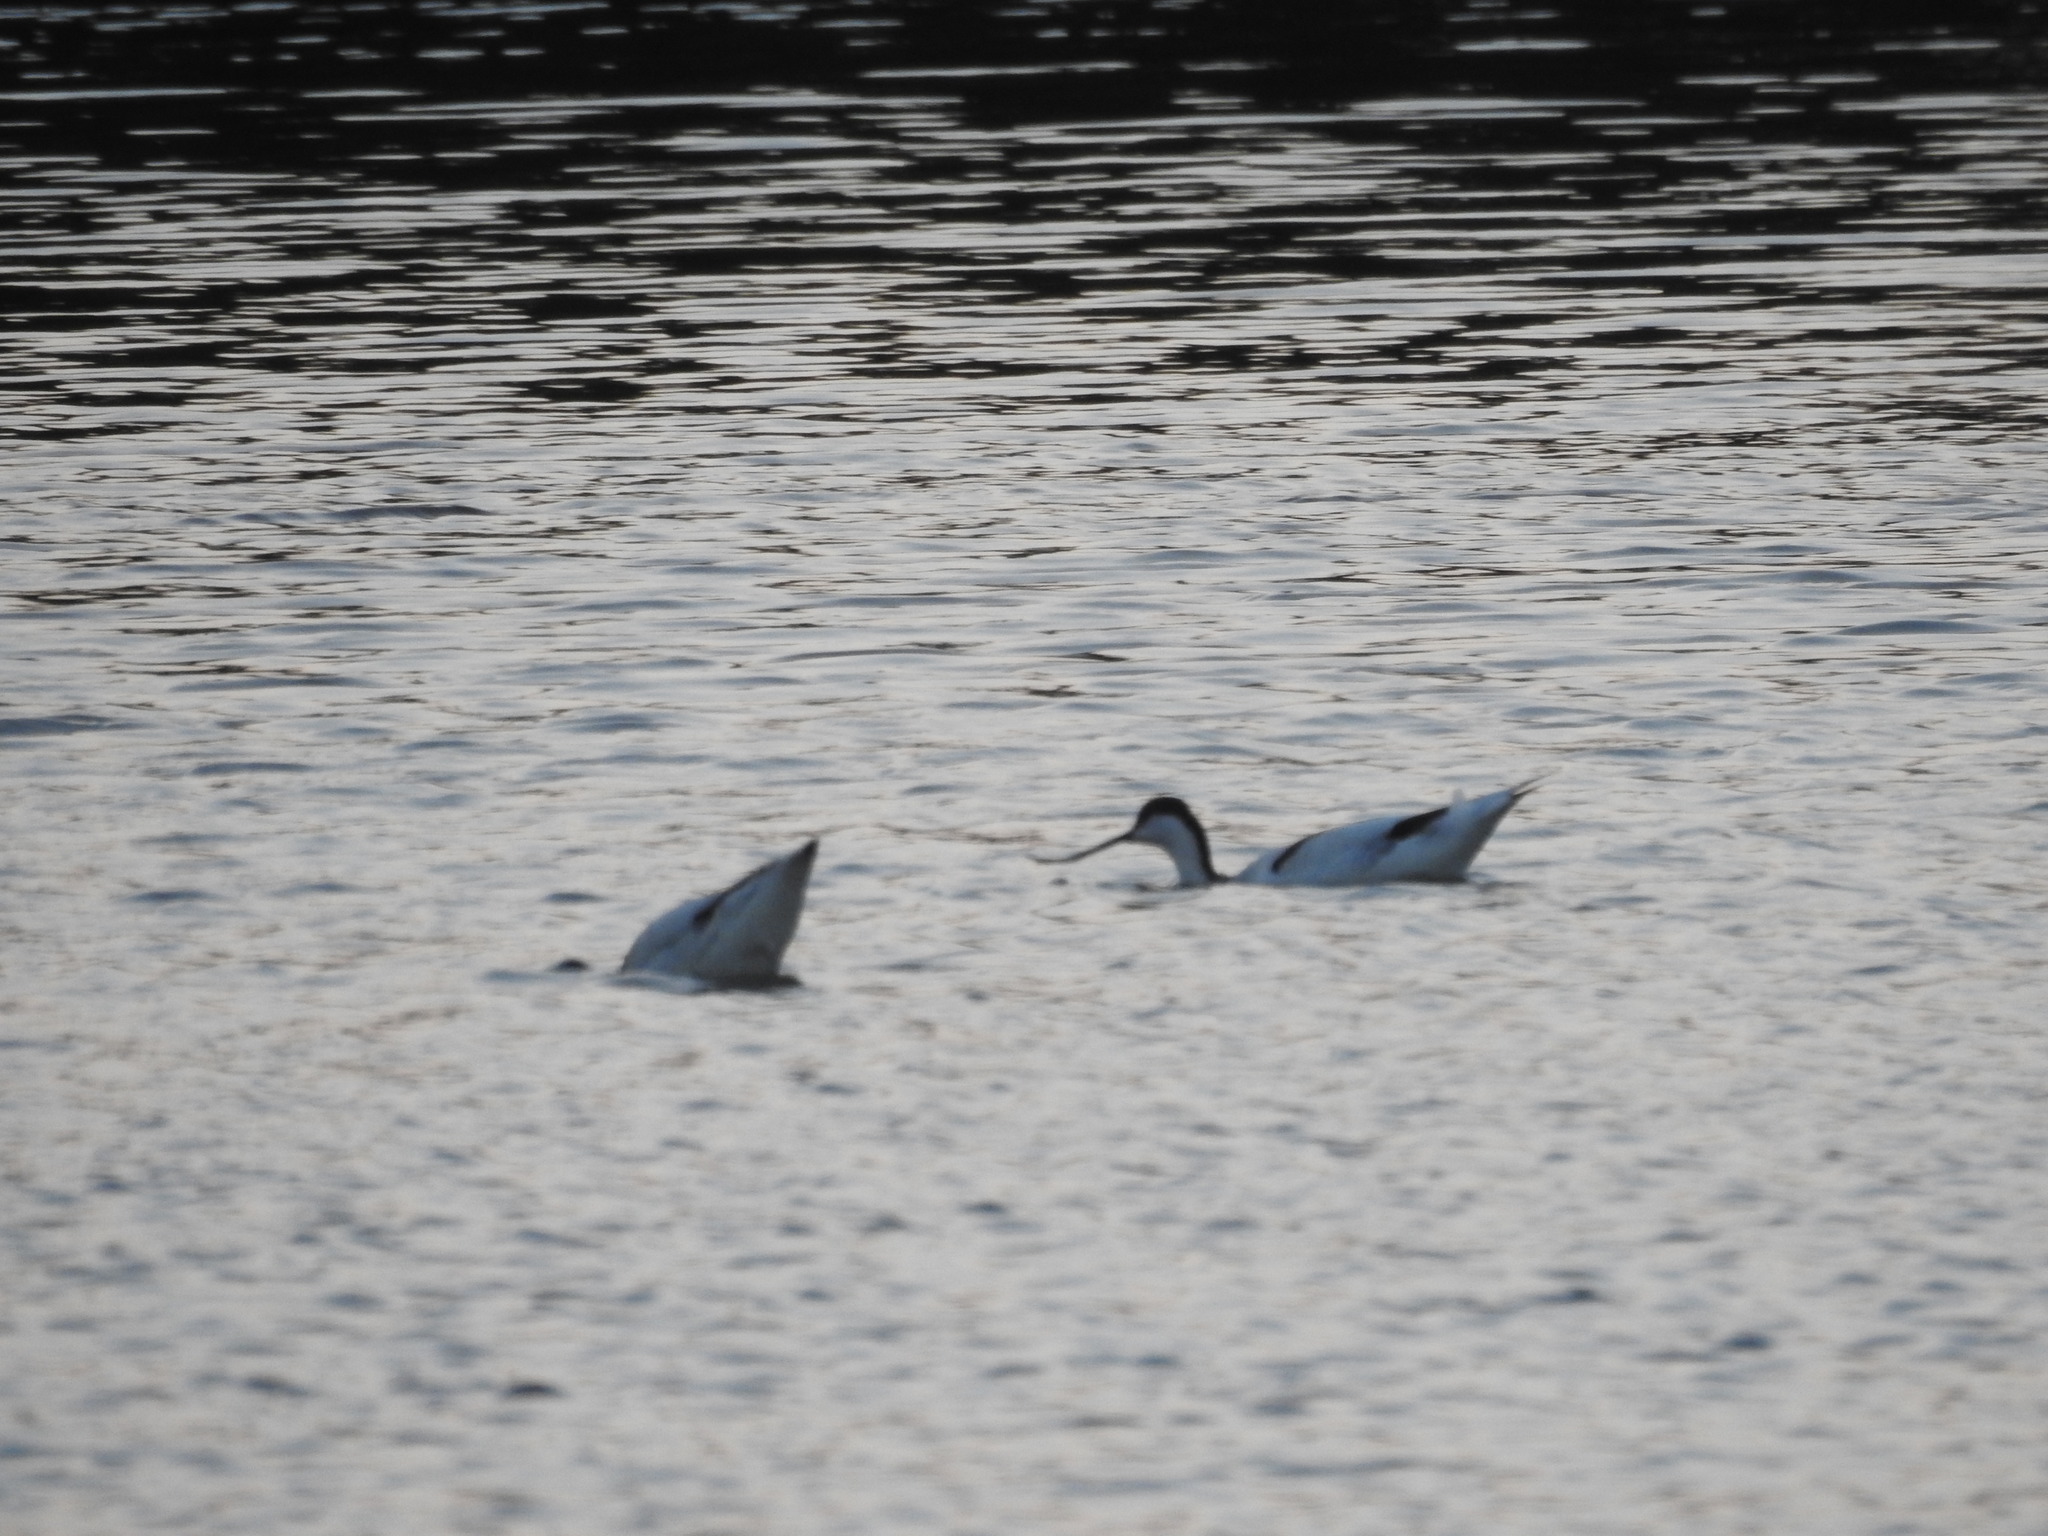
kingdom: Animalia
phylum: Chordata
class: Aves
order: Charadriiformes
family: Recurvirostridae
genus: Recurvirostra
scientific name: Recurvirostra avosetta
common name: Pied avocet
